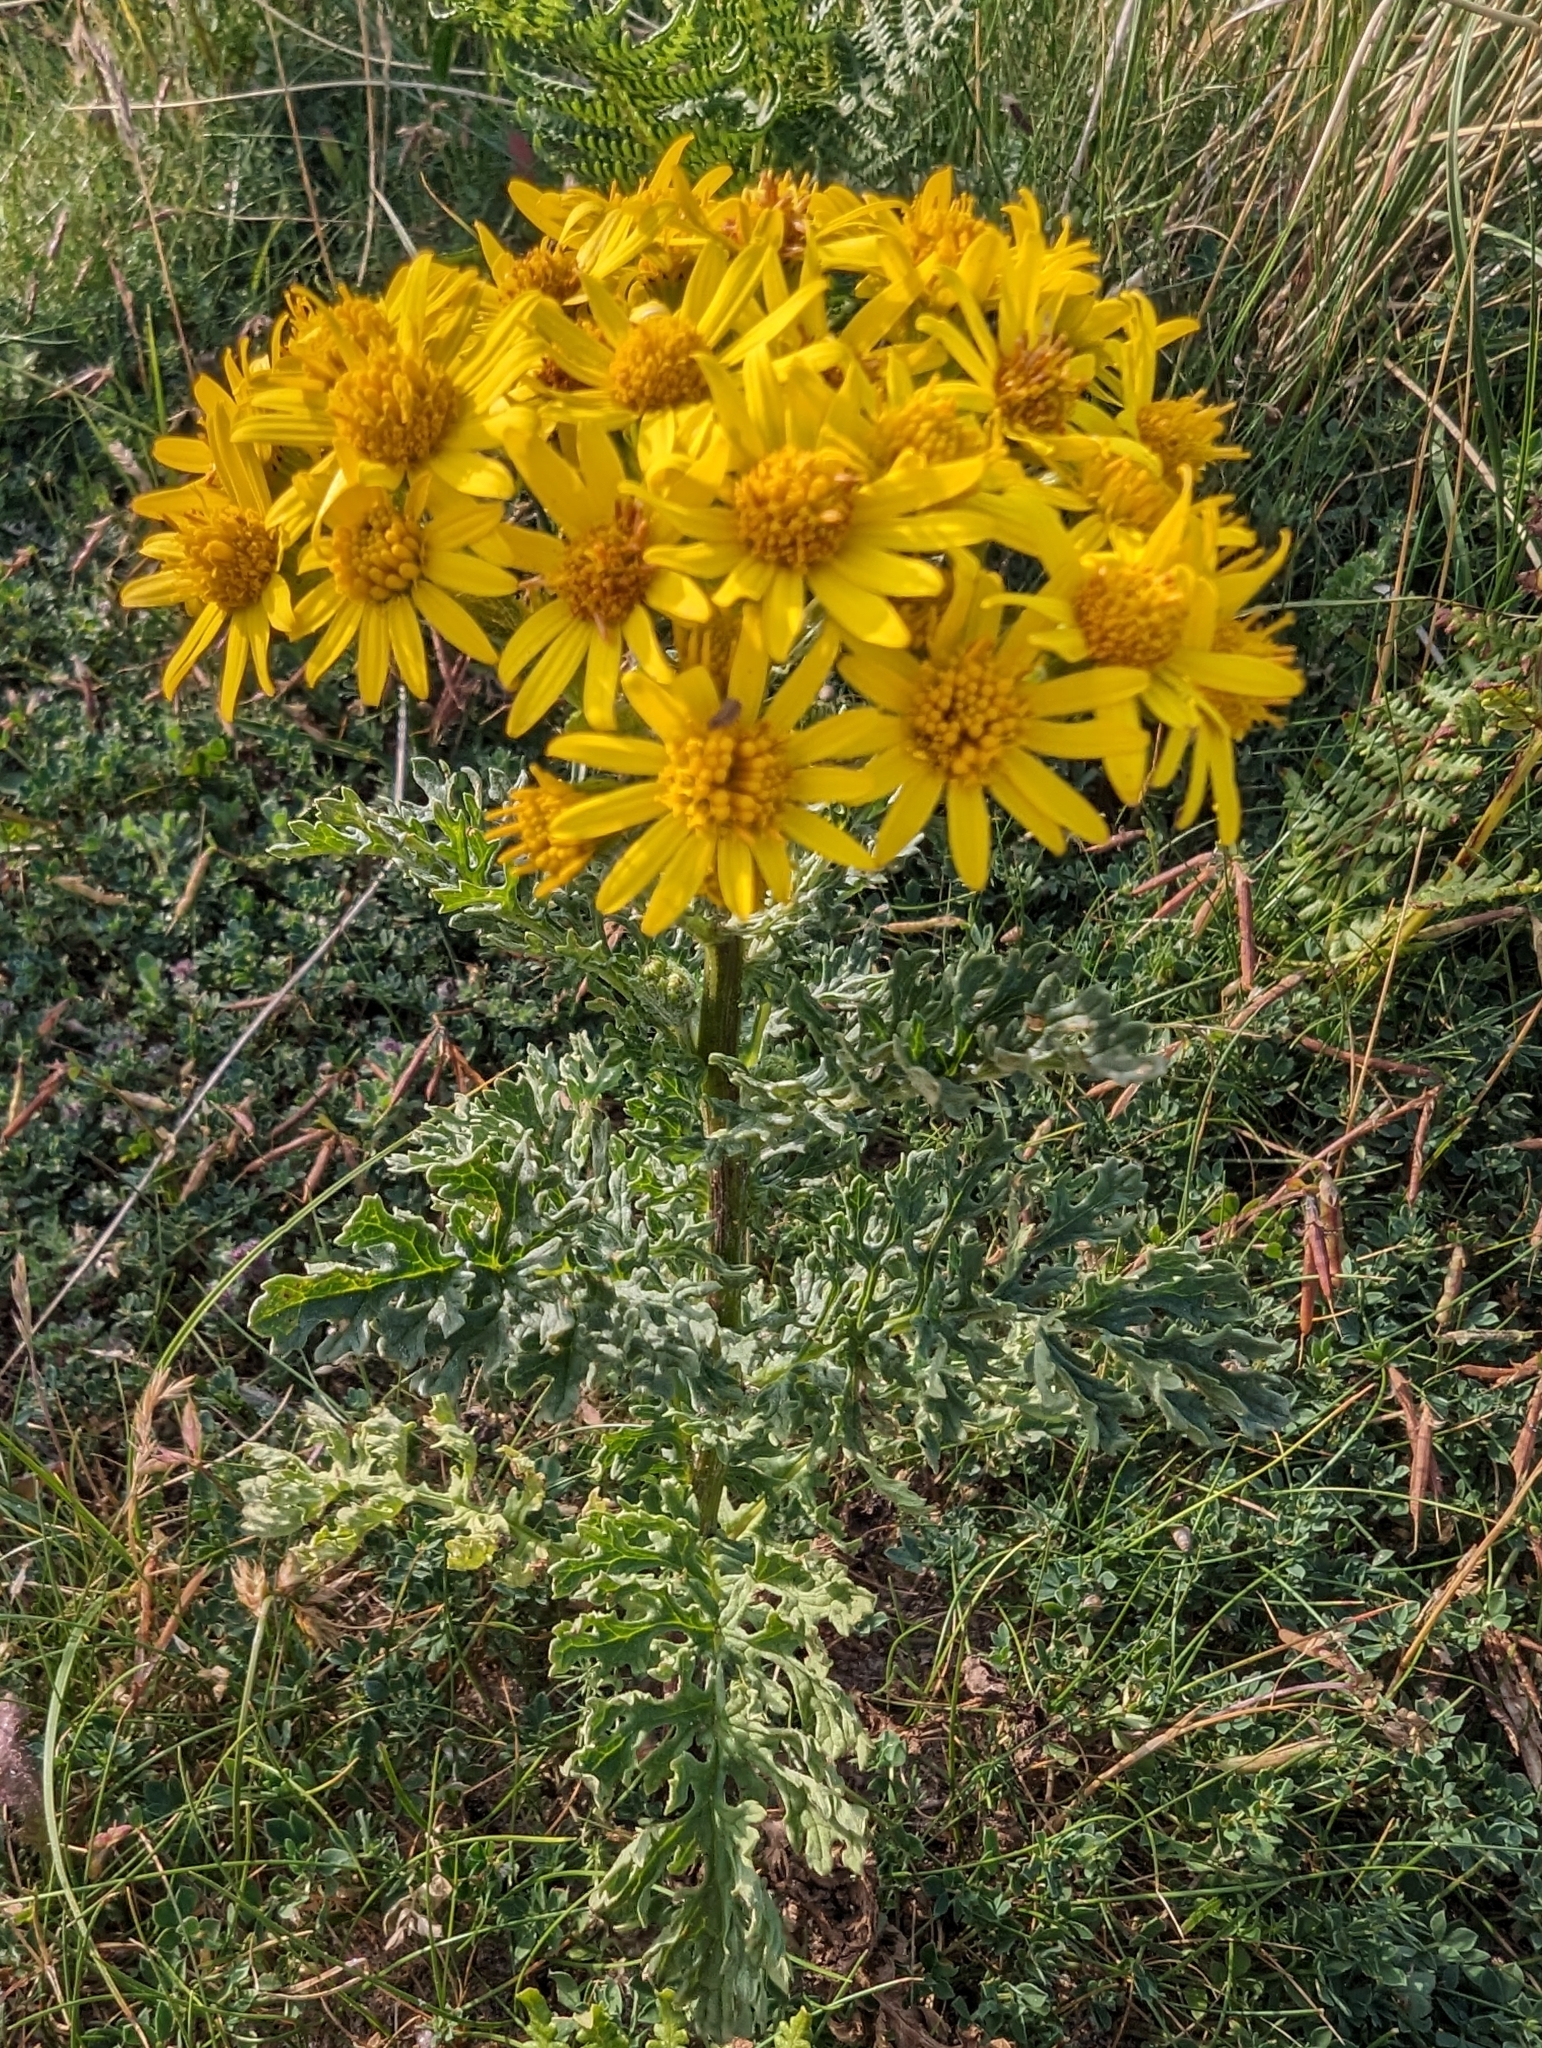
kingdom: Plantae
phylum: Tracheophyta
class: Magnoliopsida
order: Asterales
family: Asteraceae
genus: Jacobaea
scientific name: Jacobaea vulgaris
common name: Stinking willie
